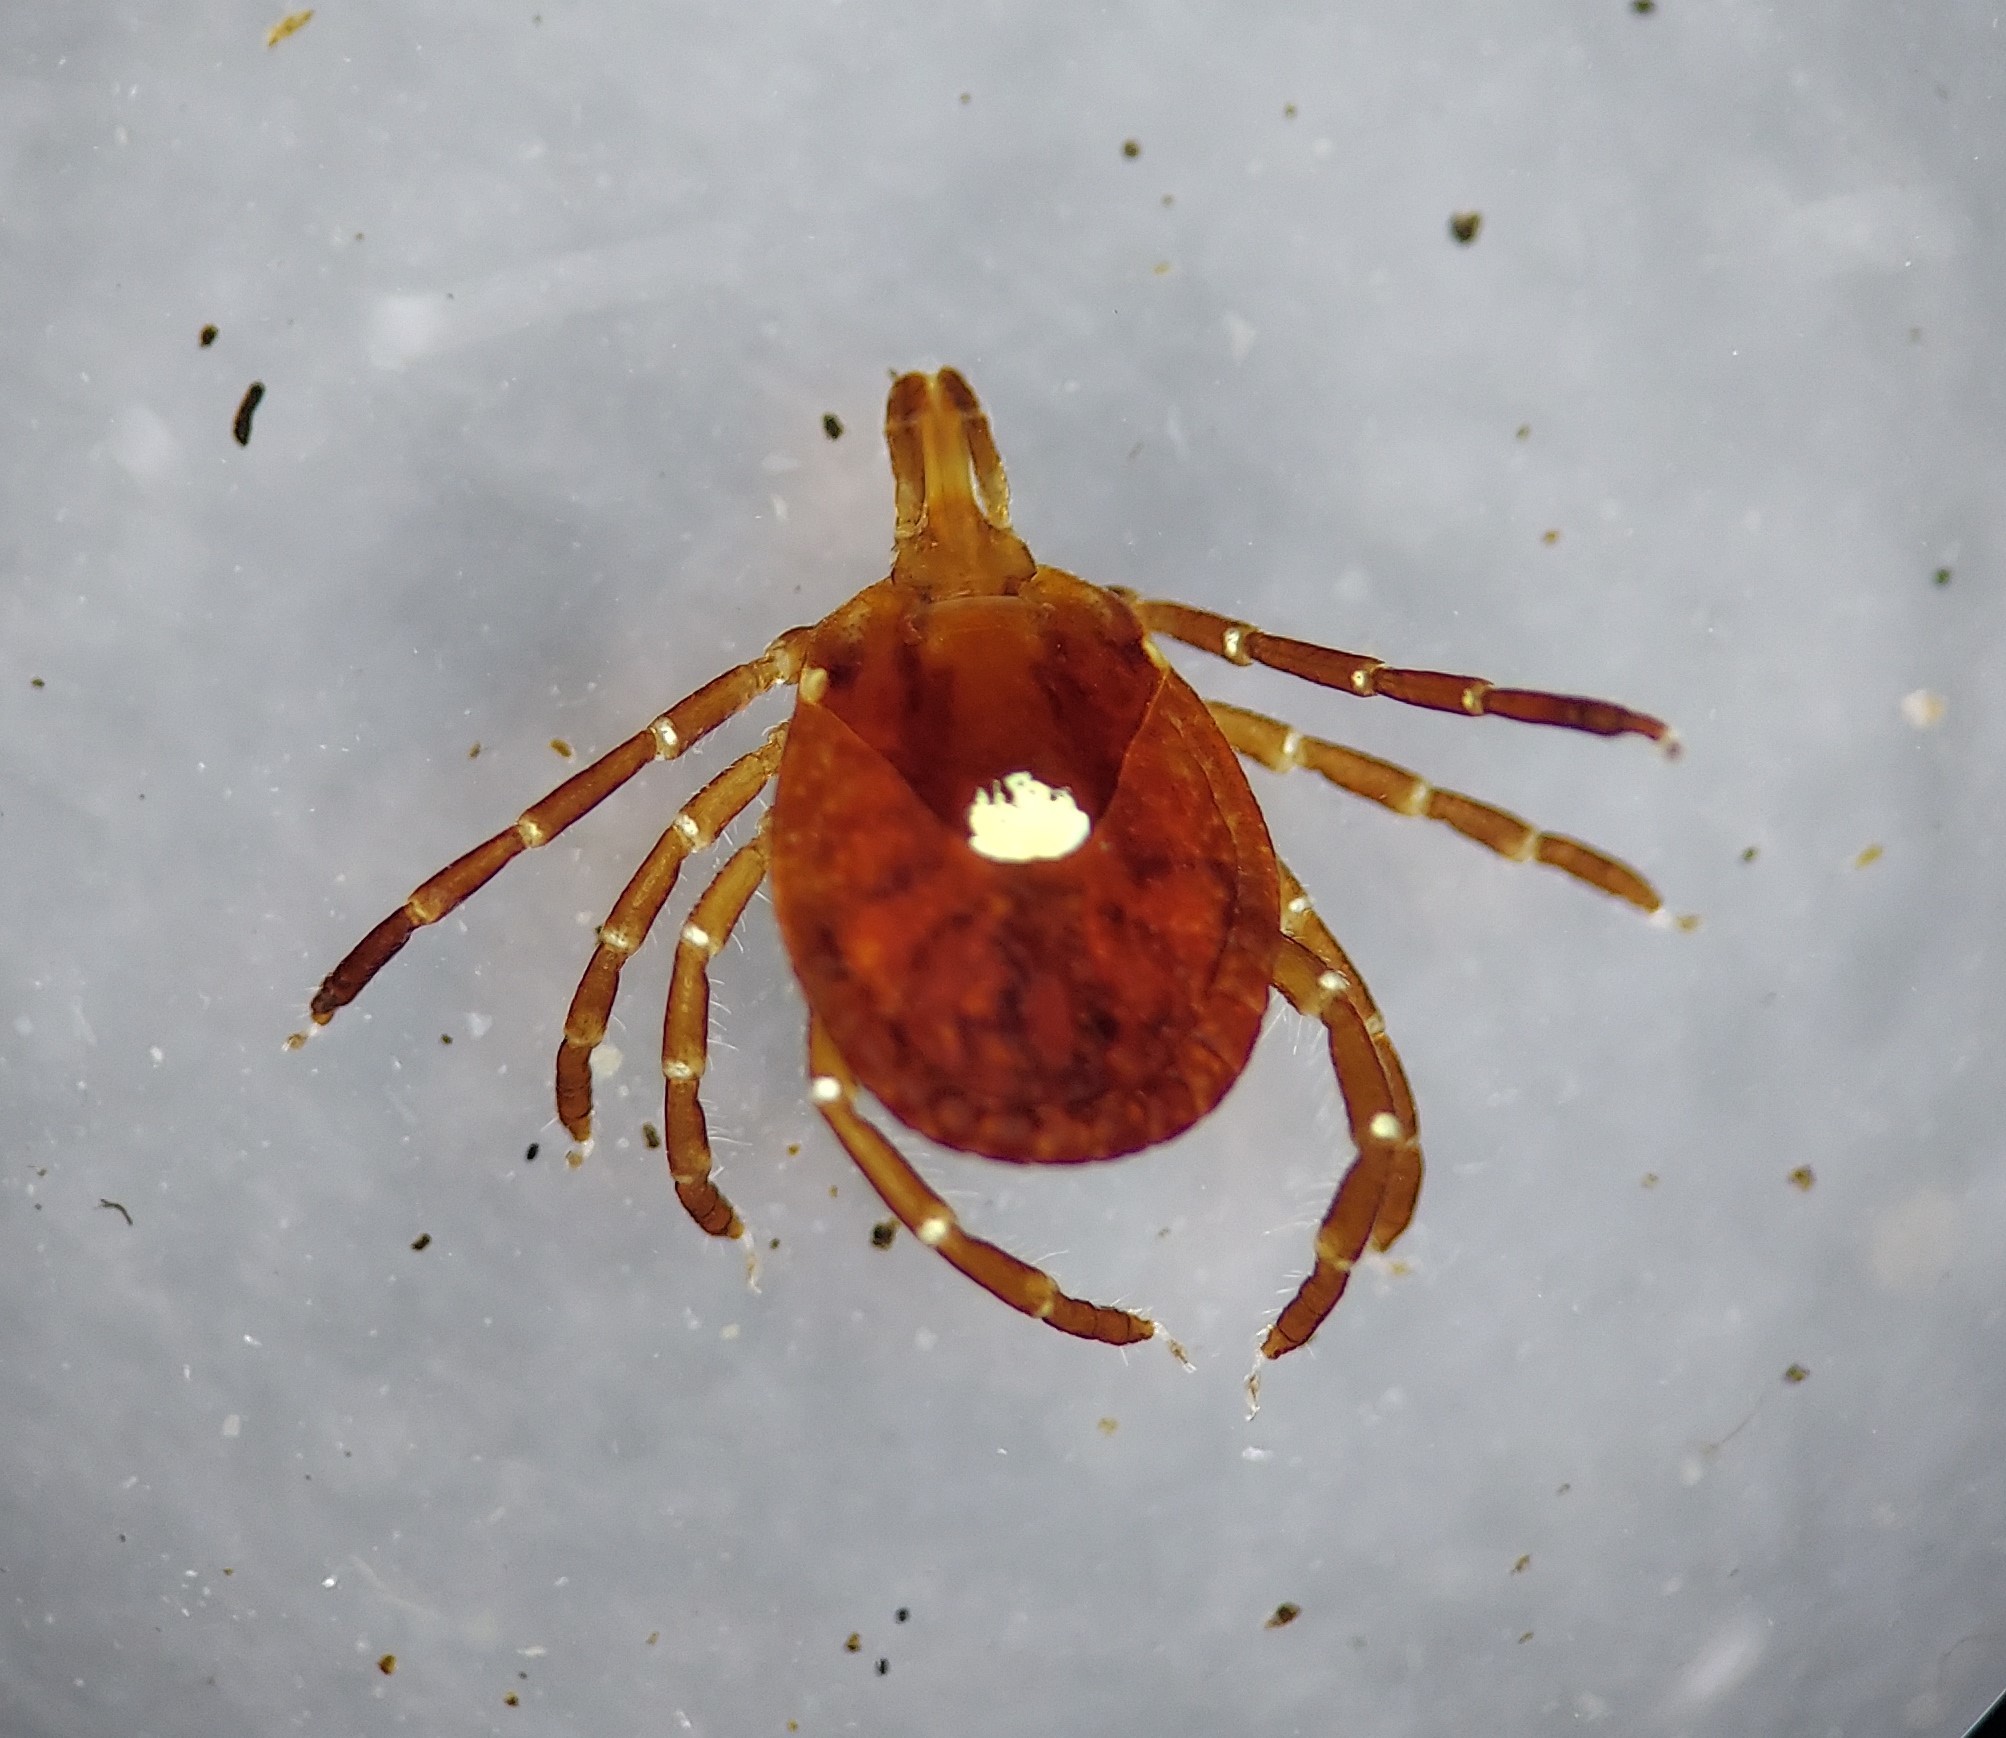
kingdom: Animalia
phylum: Arthropoda
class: Arachnida
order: Ixodida
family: Ixodidae
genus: Amblyomma
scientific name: Amblyomma americanum
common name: Lone star tick
